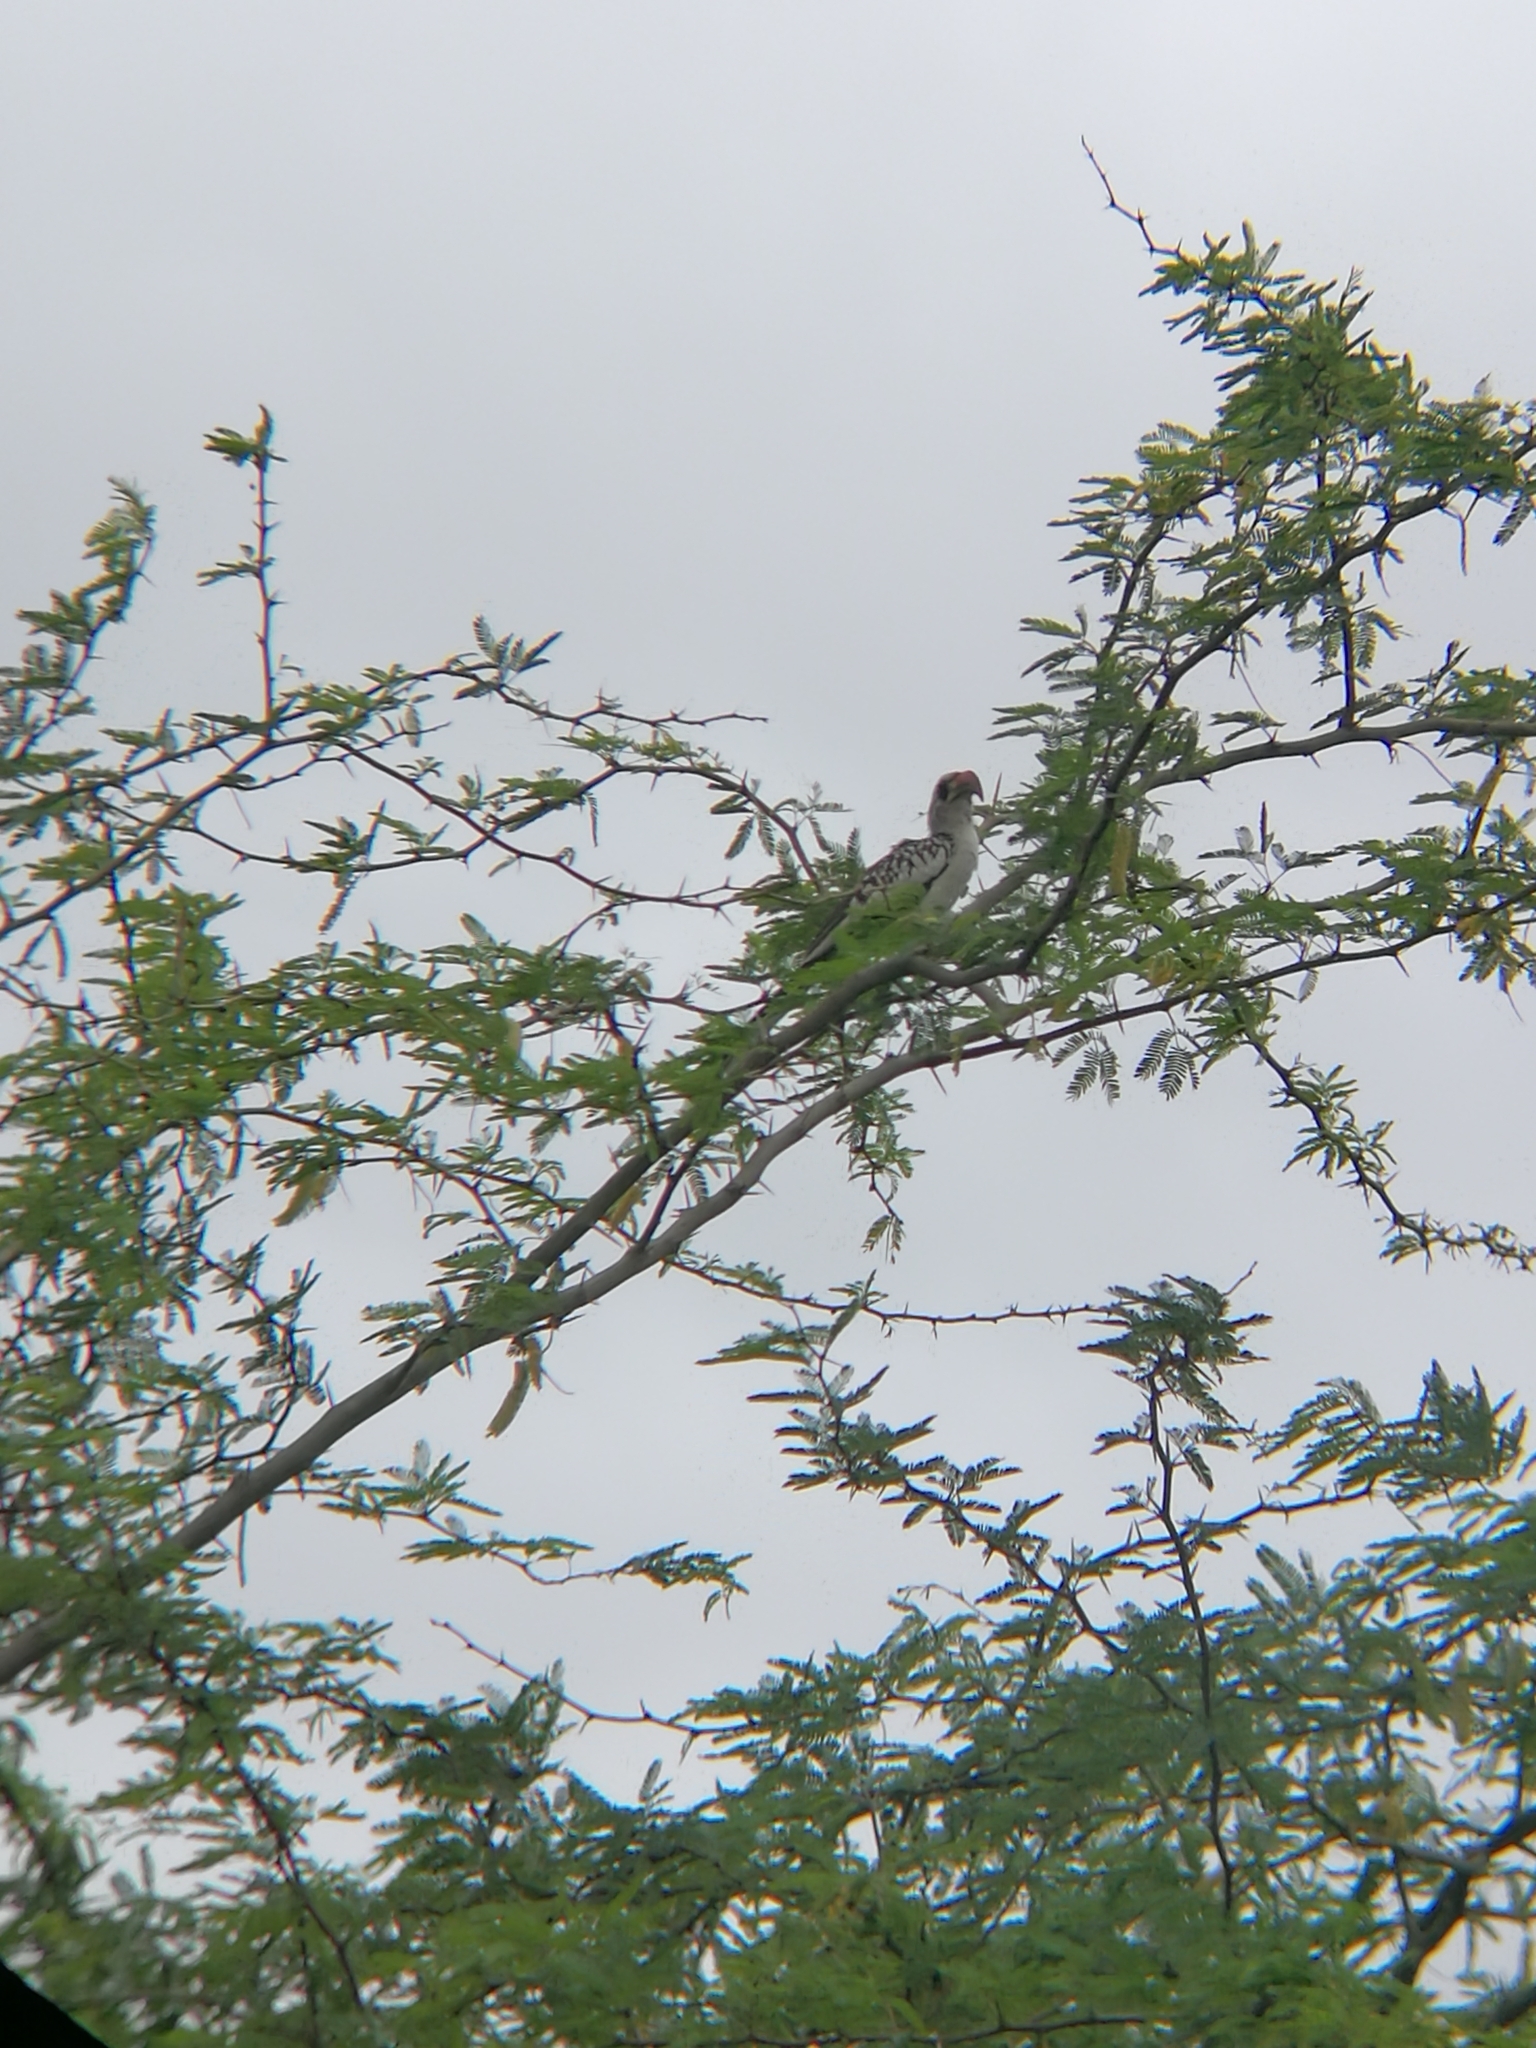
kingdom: Animalia
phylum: Chordata
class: Aves
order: Bucerotiformes
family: Bucerotidae
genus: Tockus
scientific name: Tockus kempi
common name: Western red-billed hornbill
